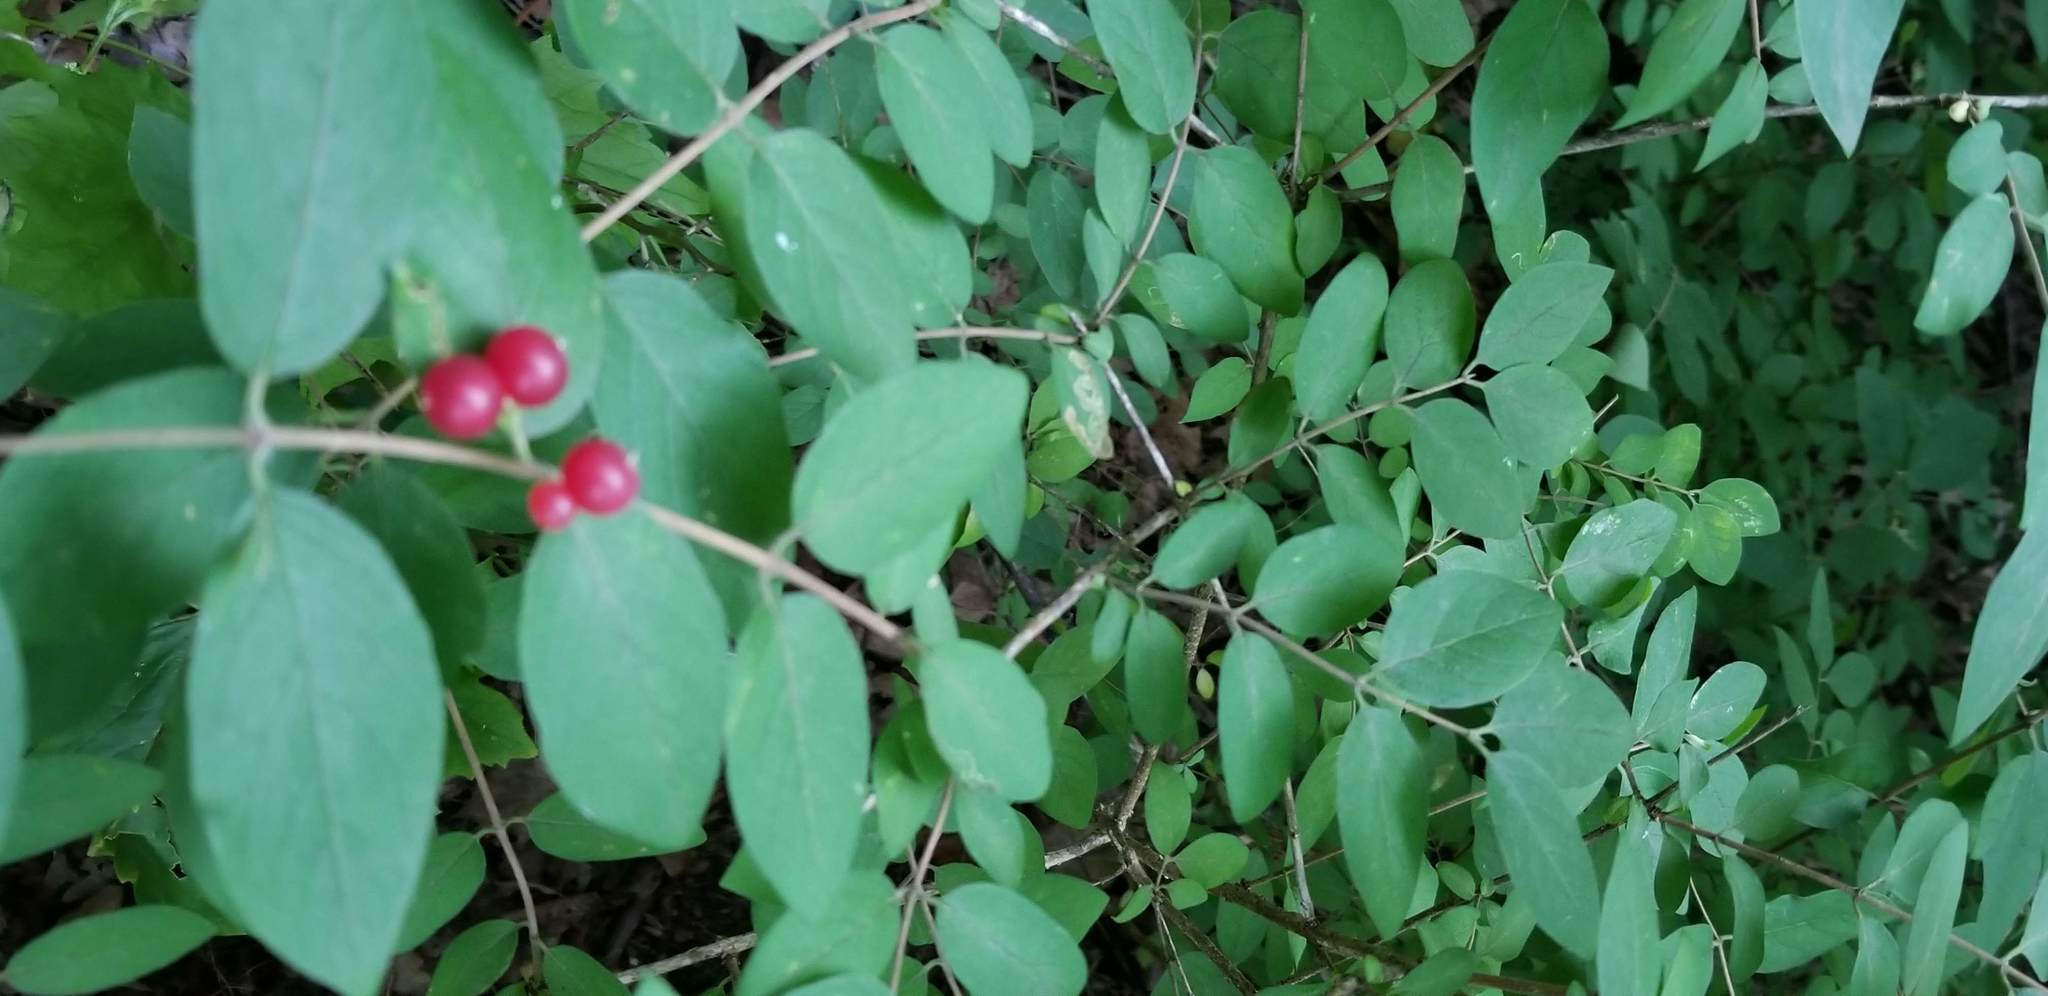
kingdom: Plantae
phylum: Tracheophyta
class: Magnoliopsida
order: Dipsacales
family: Caprifoliaceae
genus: Lonicera
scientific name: Lonicera morrowii
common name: Morrow's honeysuckle
